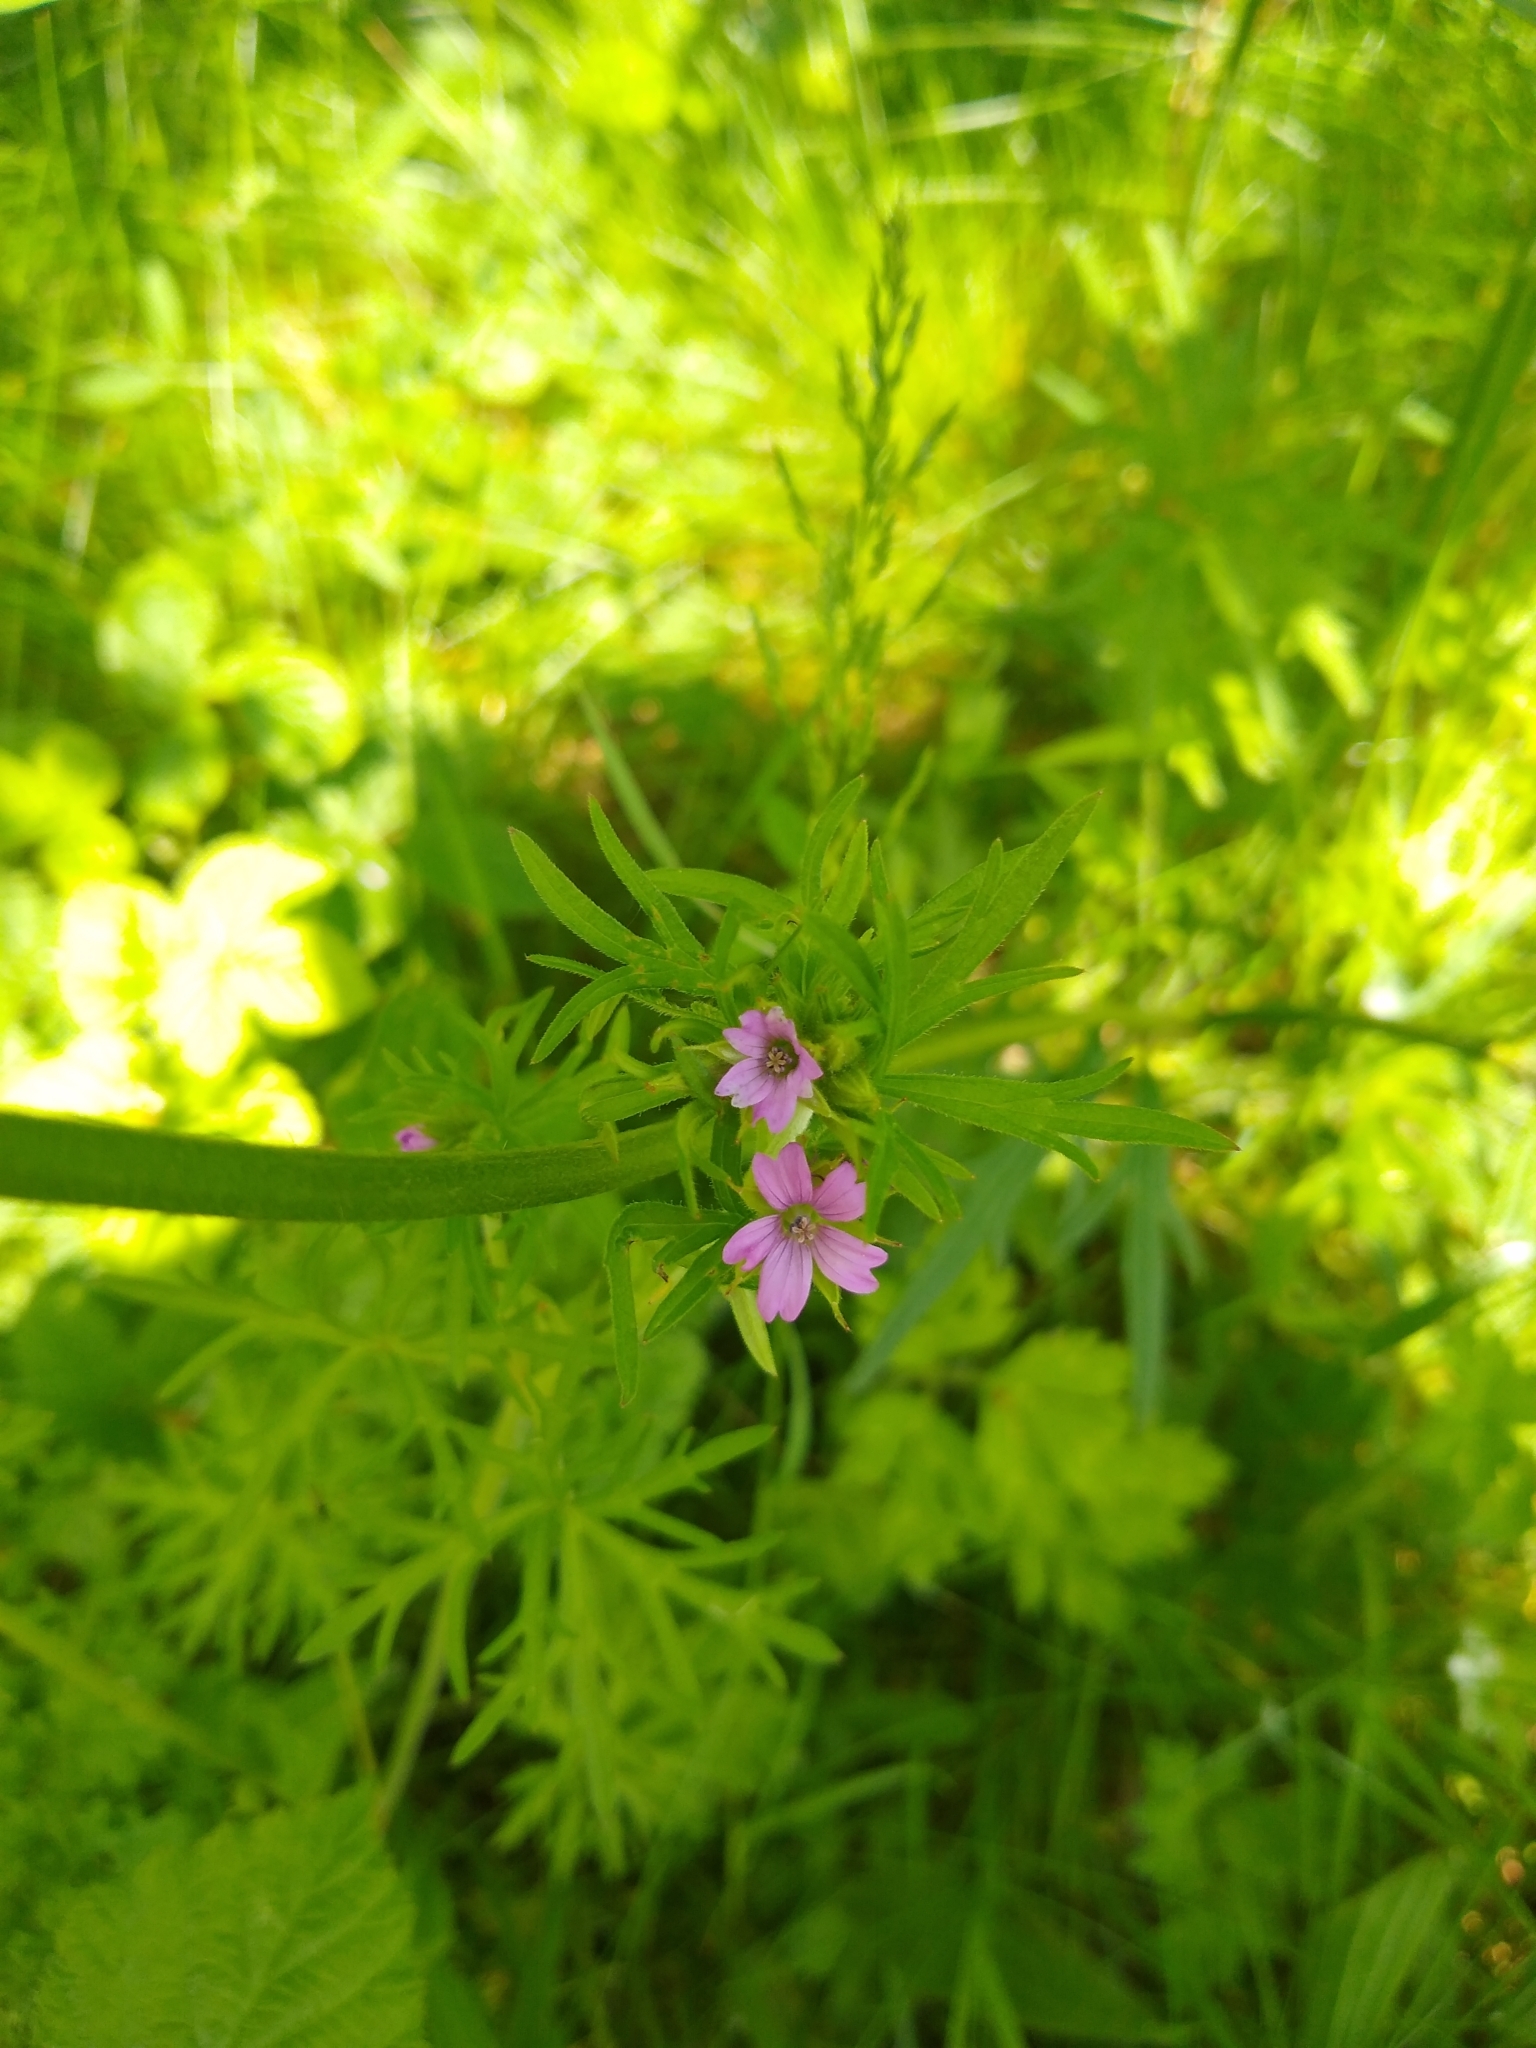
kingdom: Plantae
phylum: Tracheophyta
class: Magnoliopsida
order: Geraniales
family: Geraniaceae
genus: Geranium
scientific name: Geranium dissectum
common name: Cut-leaved crane's-bill
